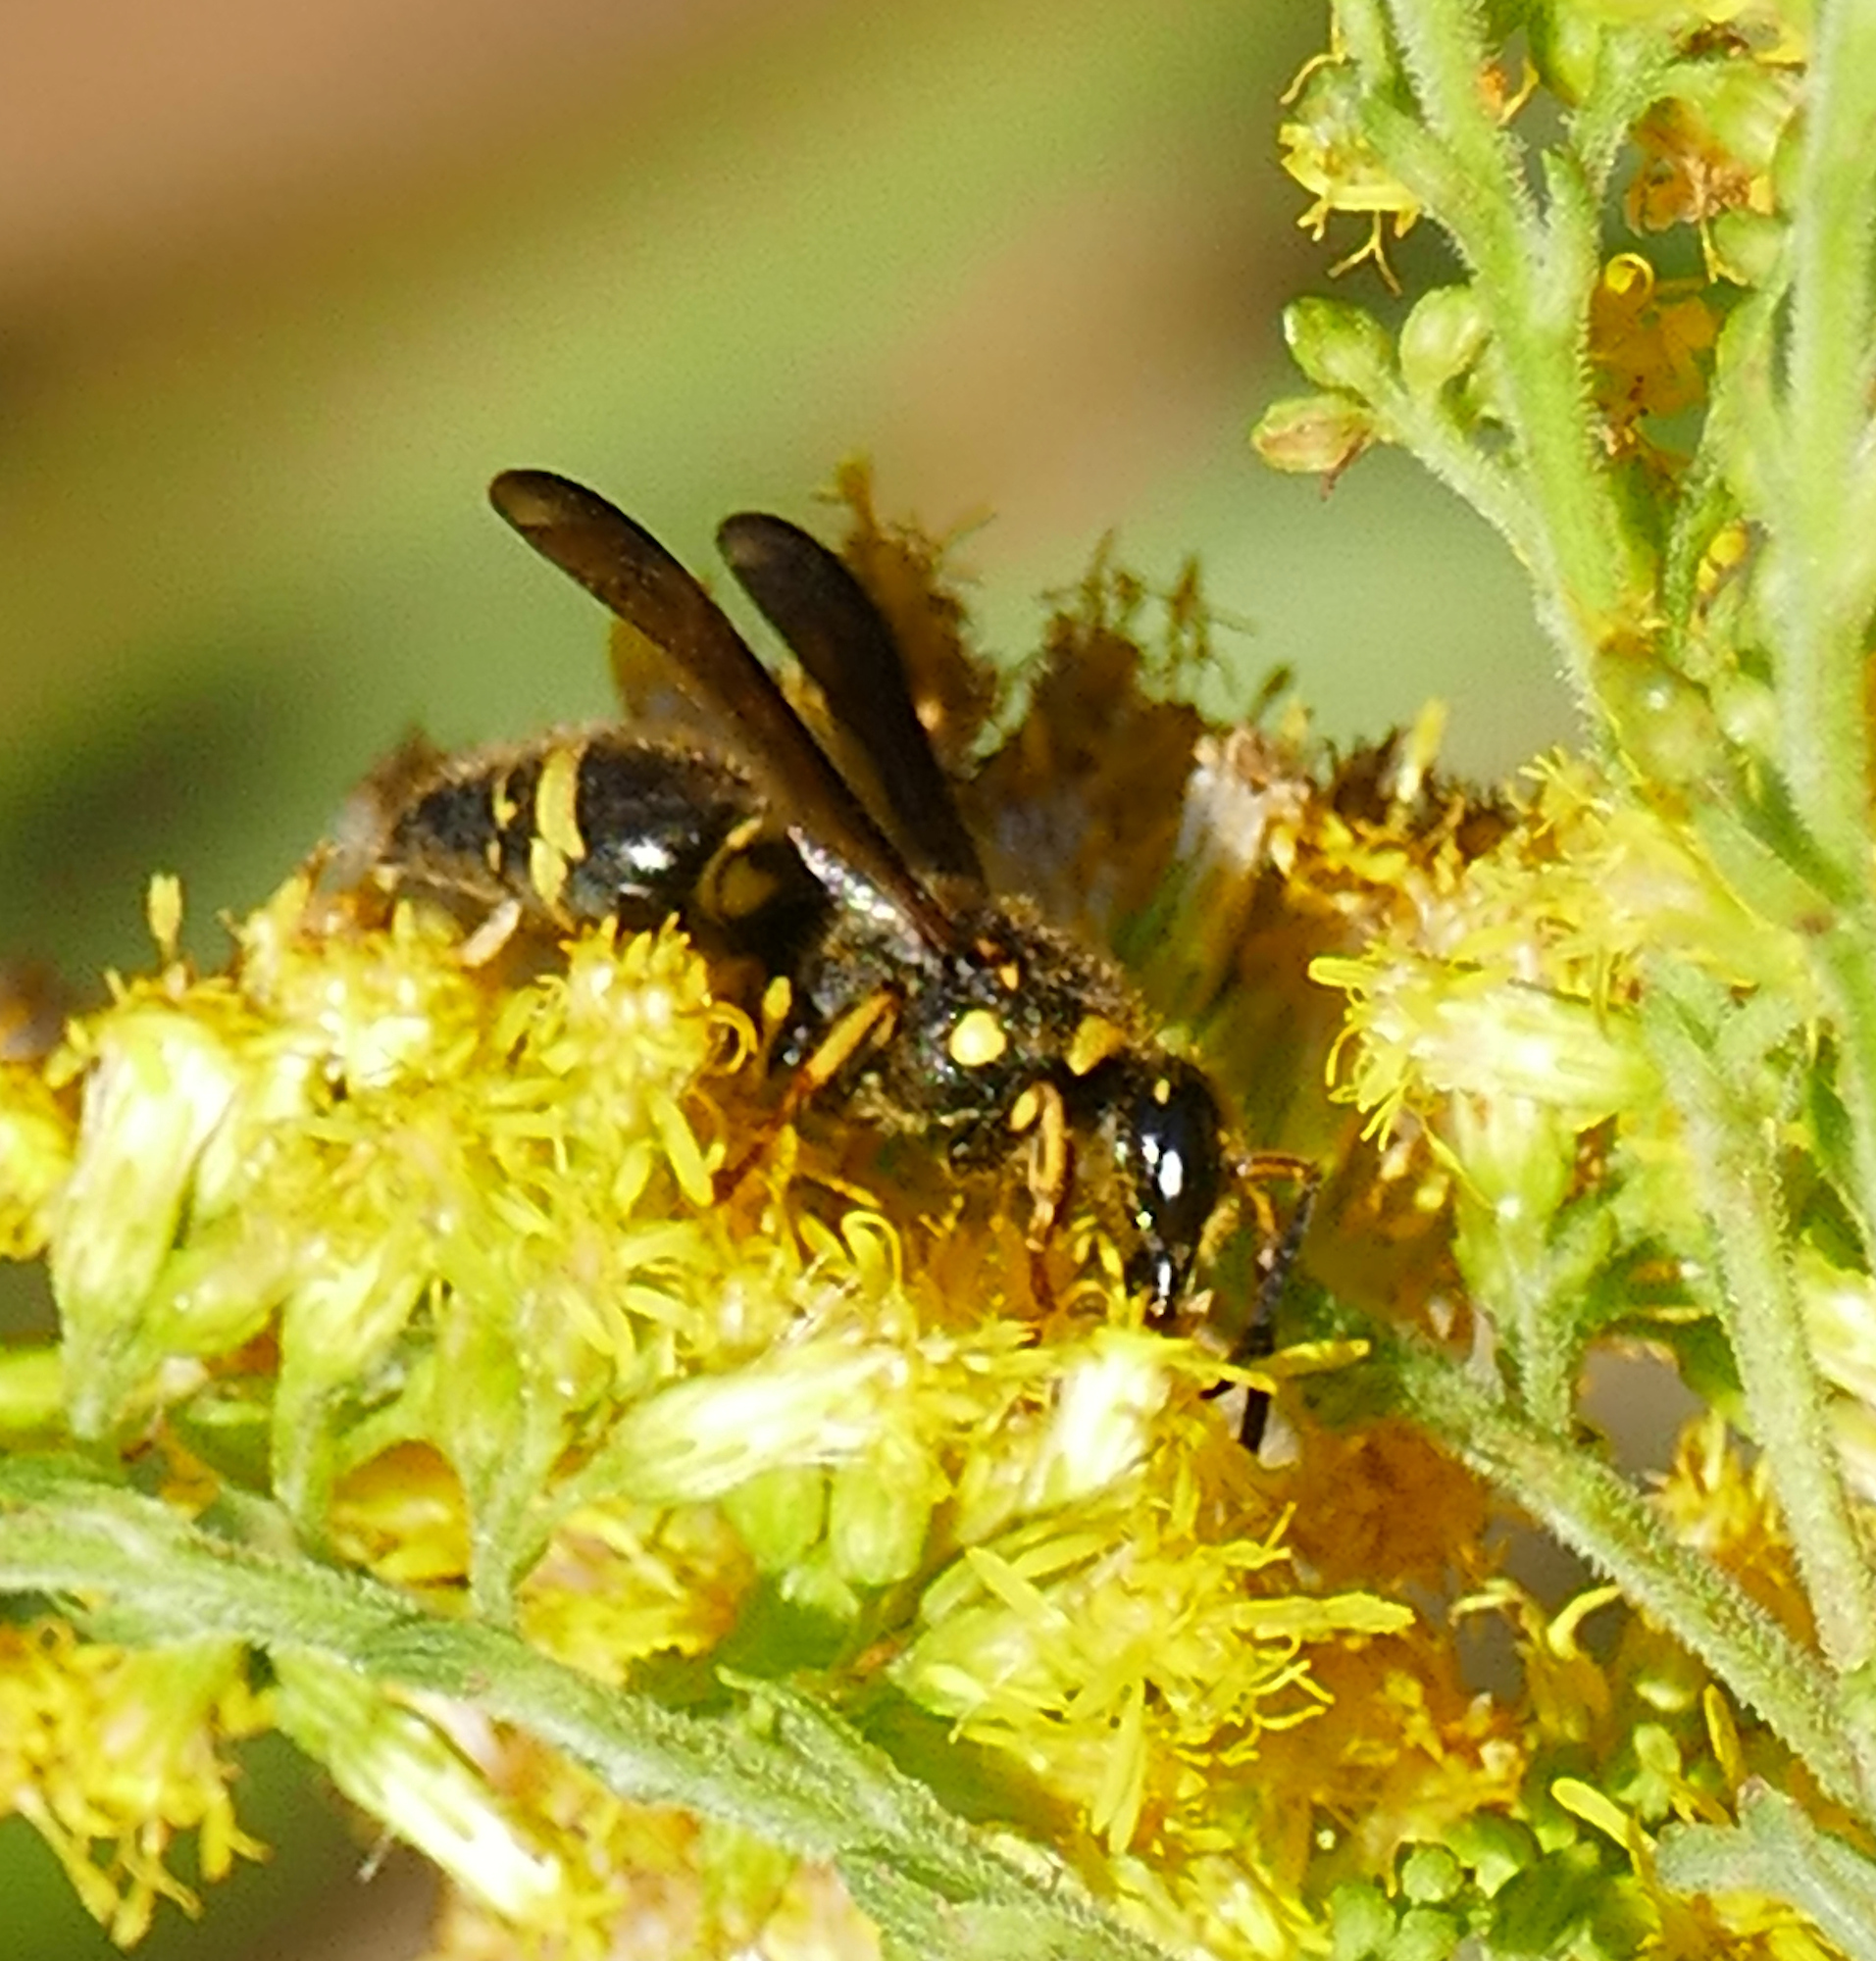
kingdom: Animalia
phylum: Arthropoda
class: Insecta
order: Hymenoptera
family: Vespidae
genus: Ancistrocerus
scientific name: Ancistrocerus campestris
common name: Smiling mason wasp
